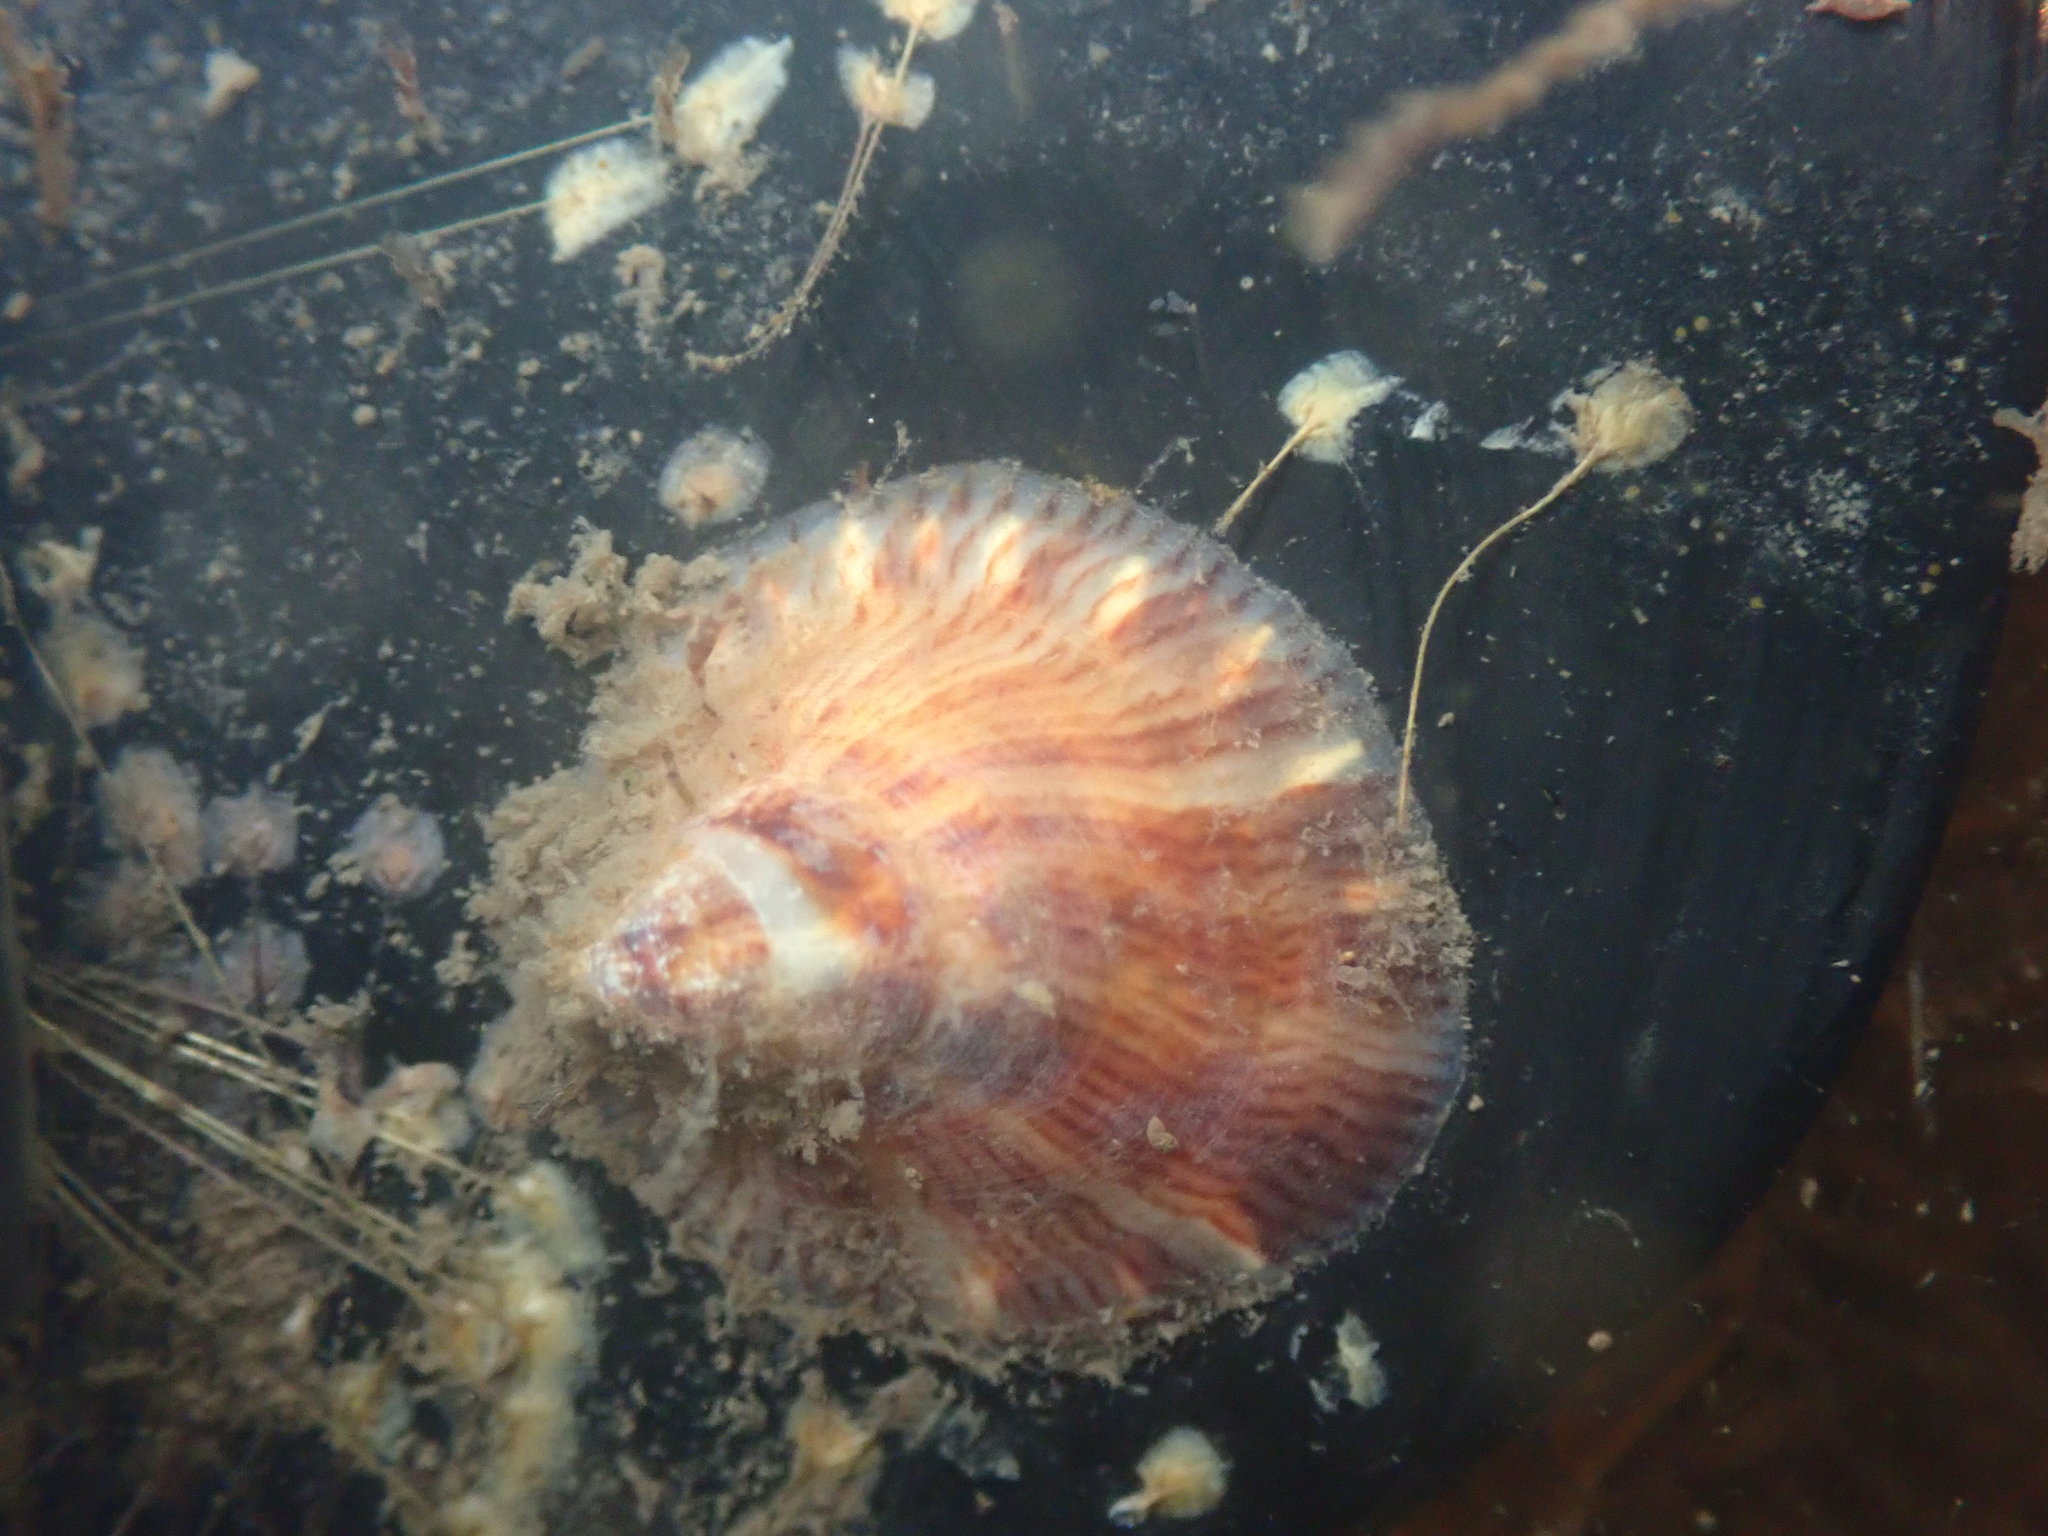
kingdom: Animalia
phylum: Mollusca
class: Gastropoda
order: Littorinimorpha
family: Calyptraeidae
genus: Crepipatella
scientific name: Crepipatella lingulata
